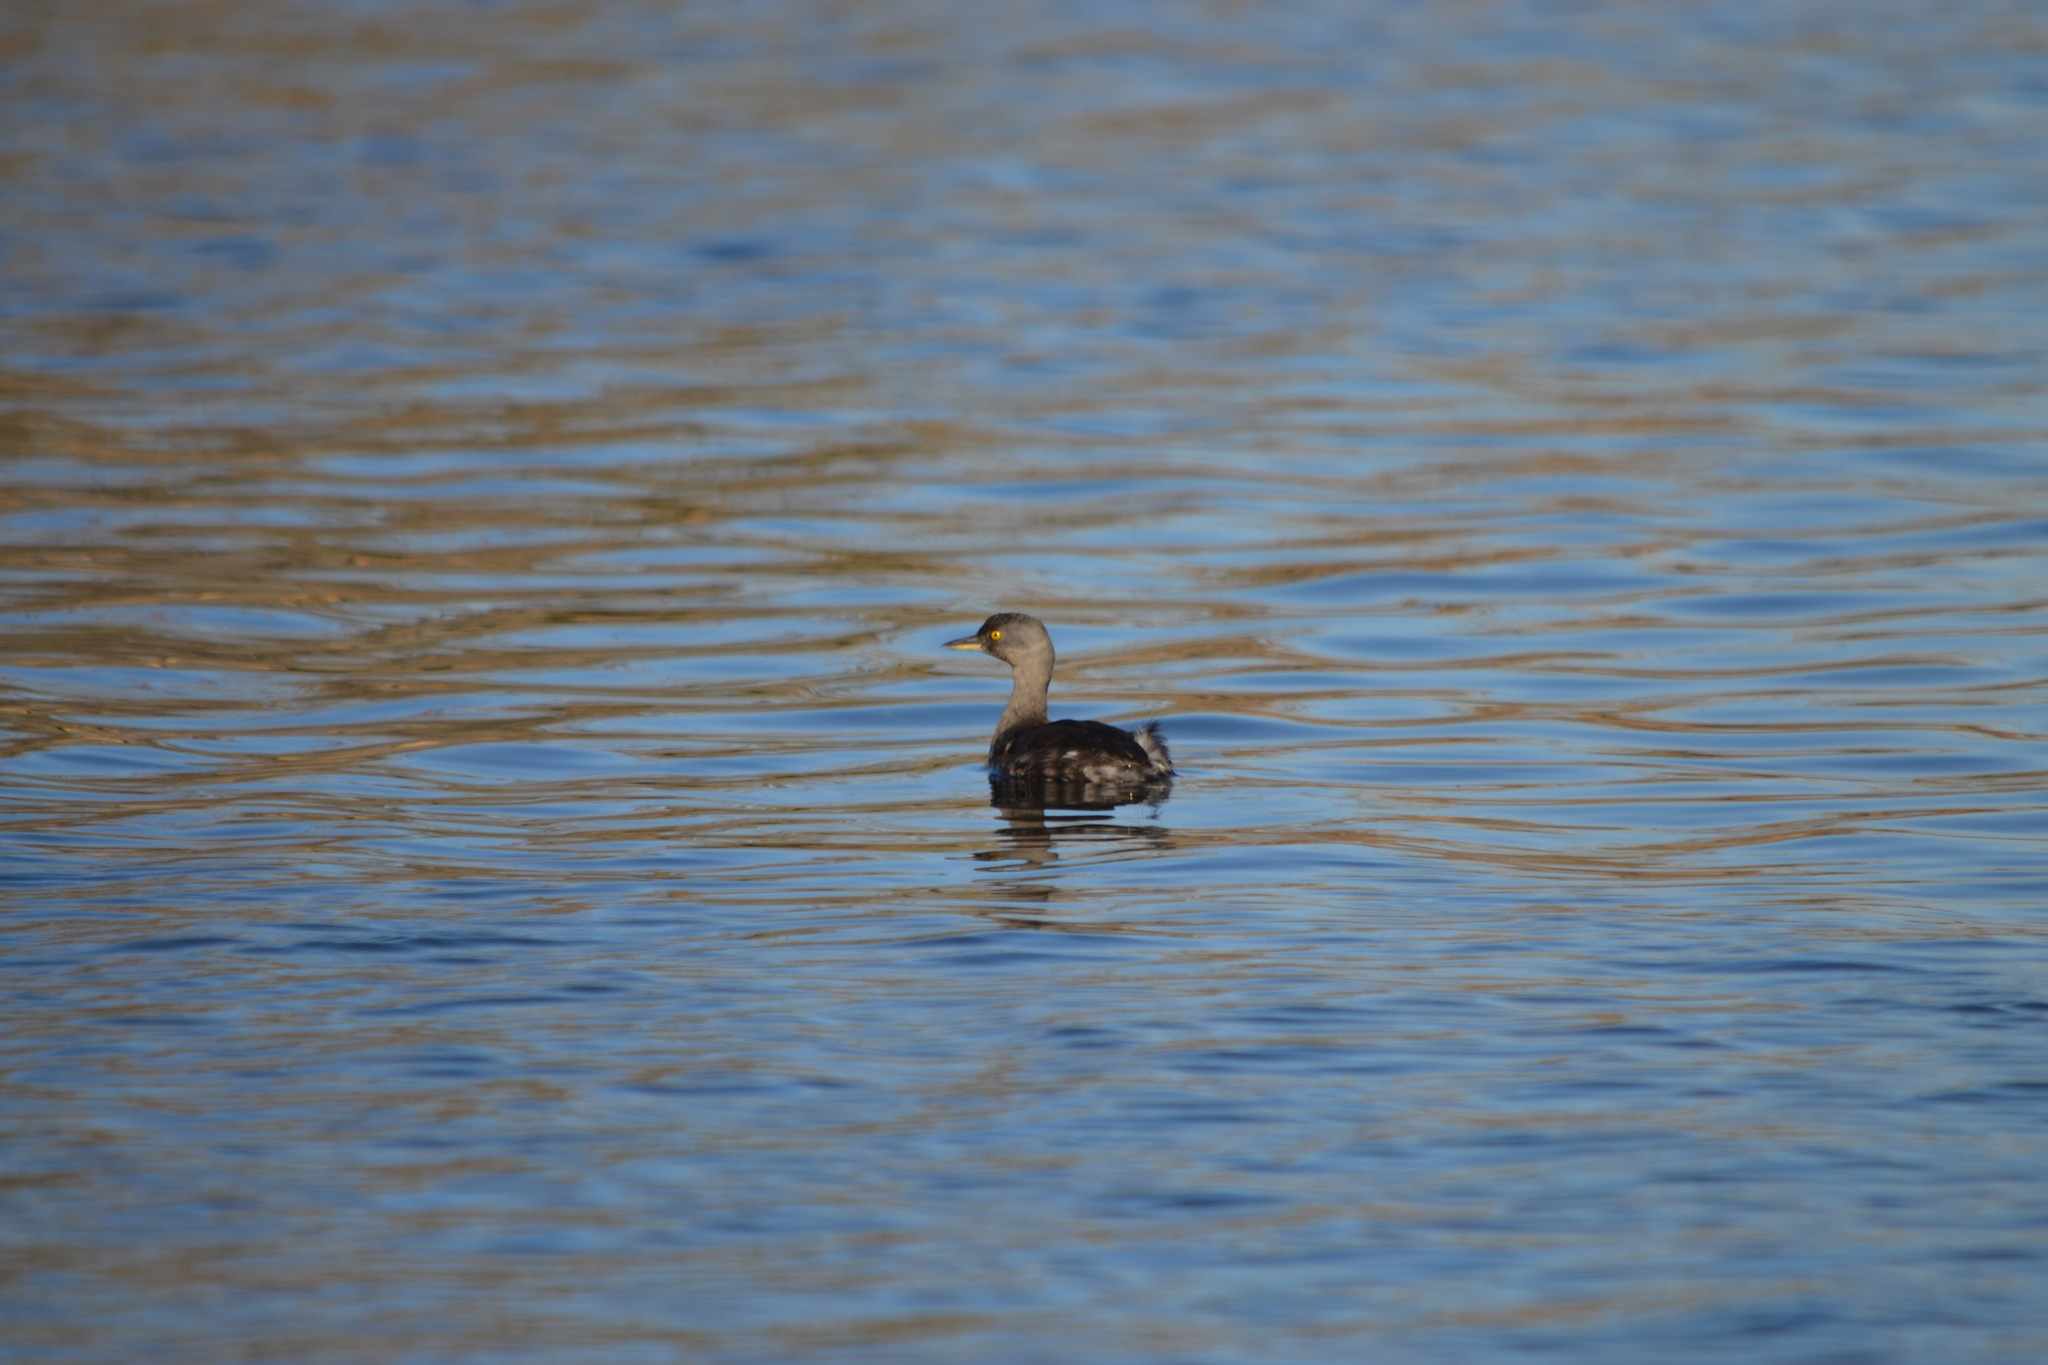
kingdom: Animalia
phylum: Chordata
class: Aves
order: Podicipediformes
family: Podicipedidae
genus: Tachybaptus
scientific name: Tachybaptus dominicus
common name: Least grebe
